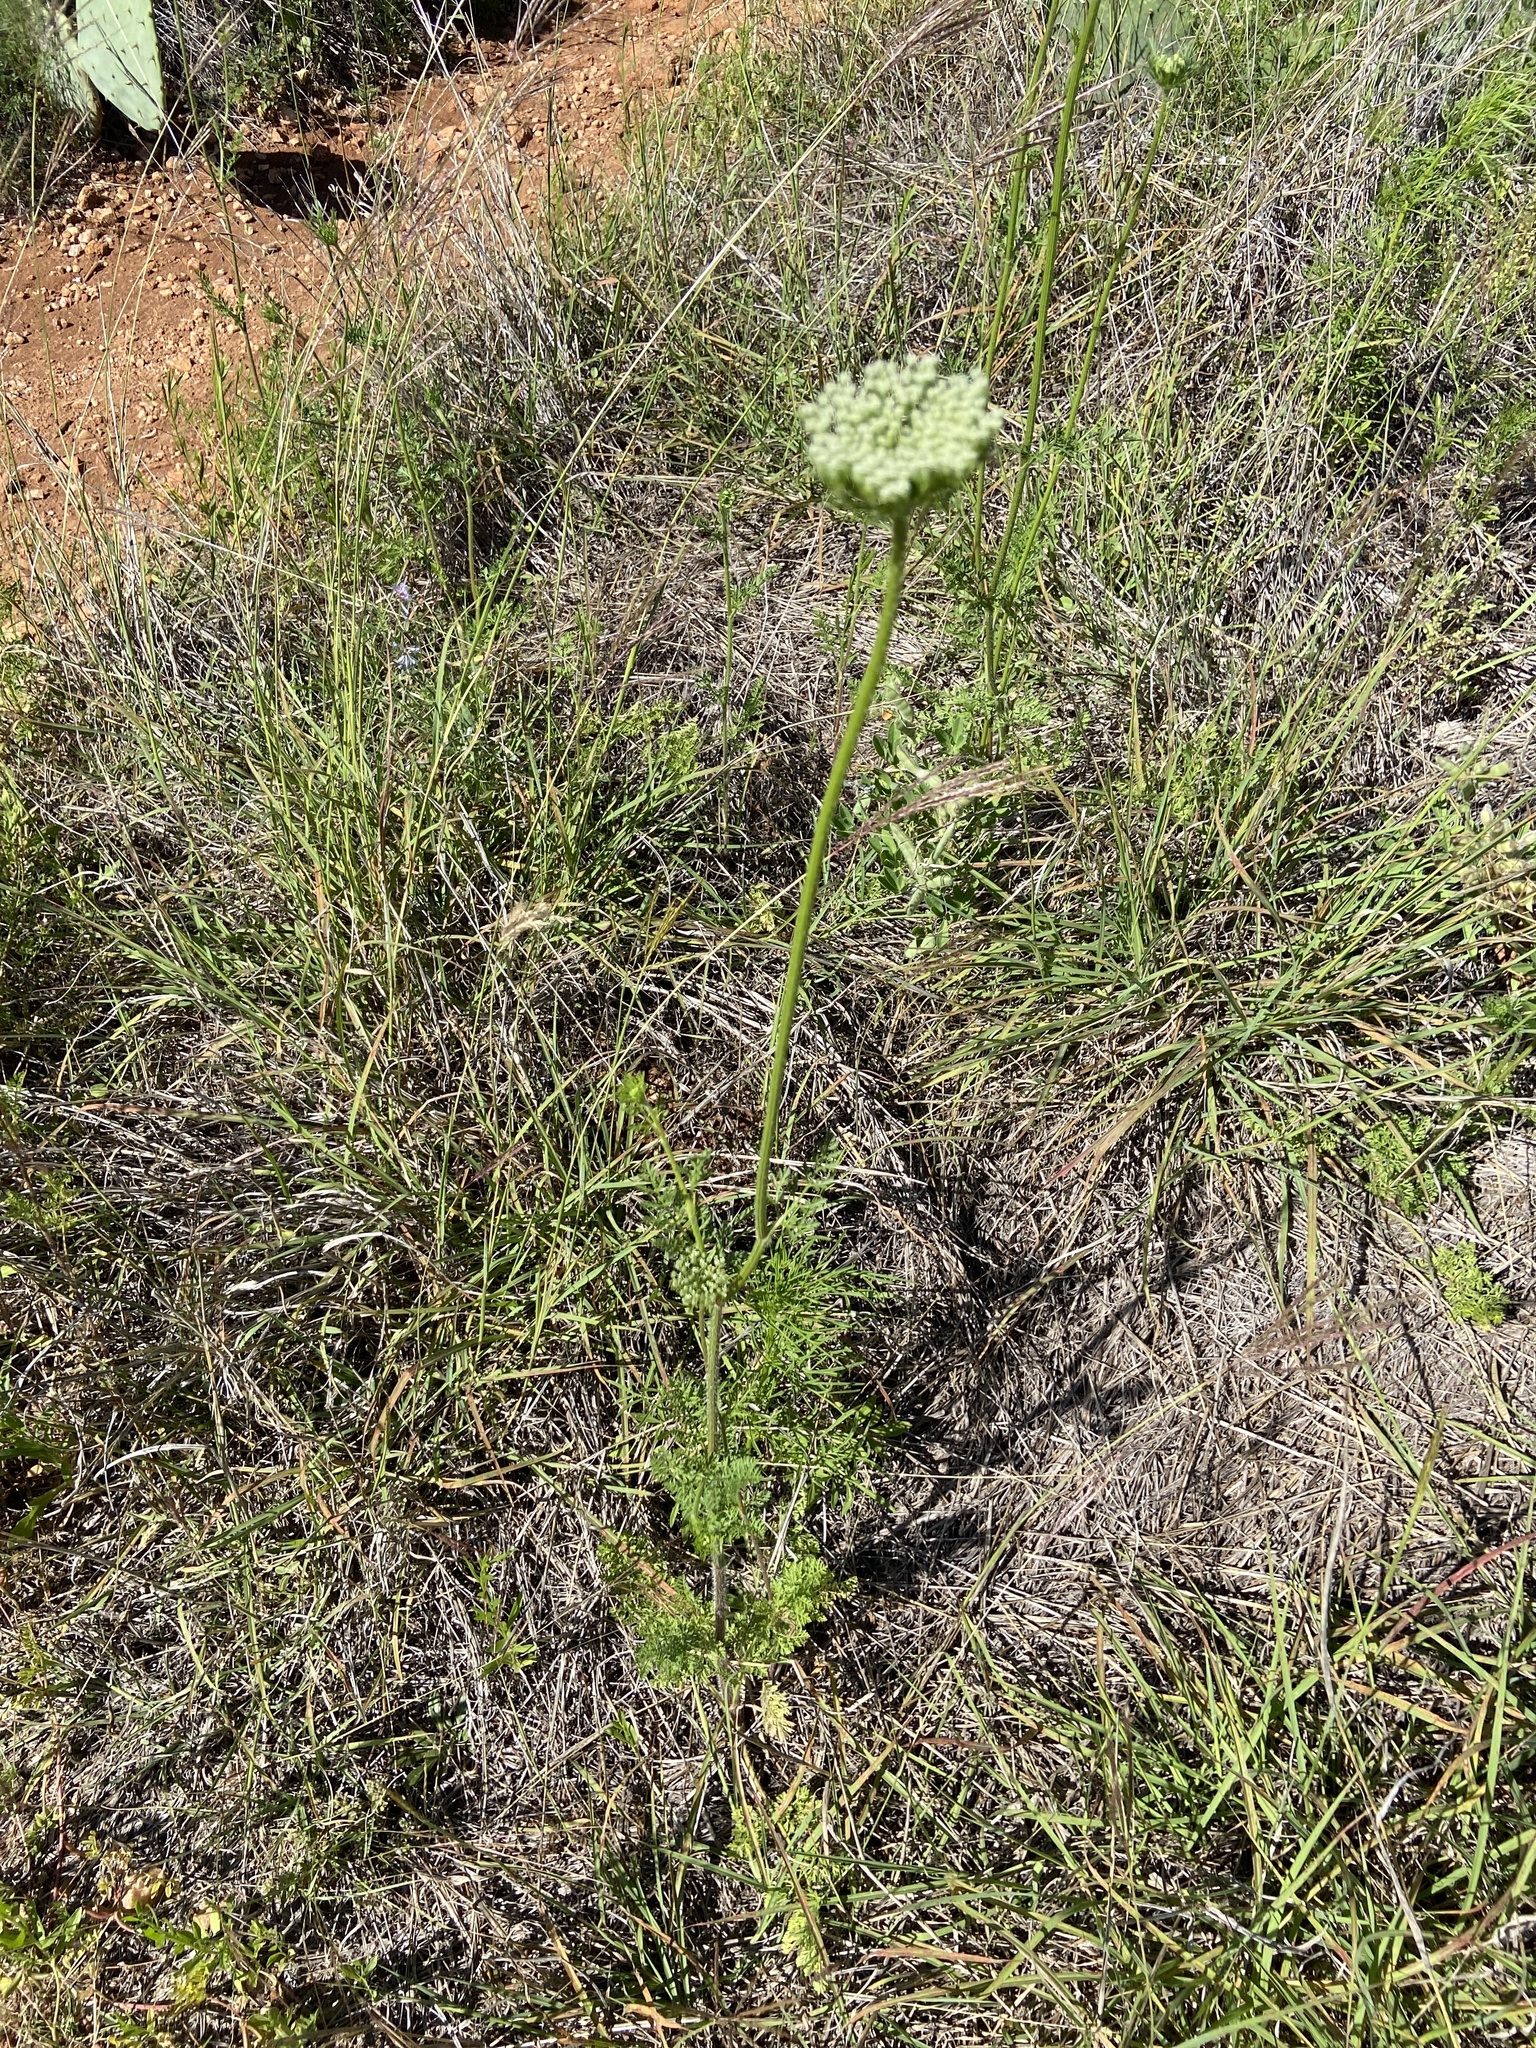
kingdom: Plantae
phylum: Tracheophyta
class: Magnoliopsida
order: Apiales
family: Apiaceae
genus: Daucus
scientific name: Daucus pusillus
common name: Southwest wild carrot
